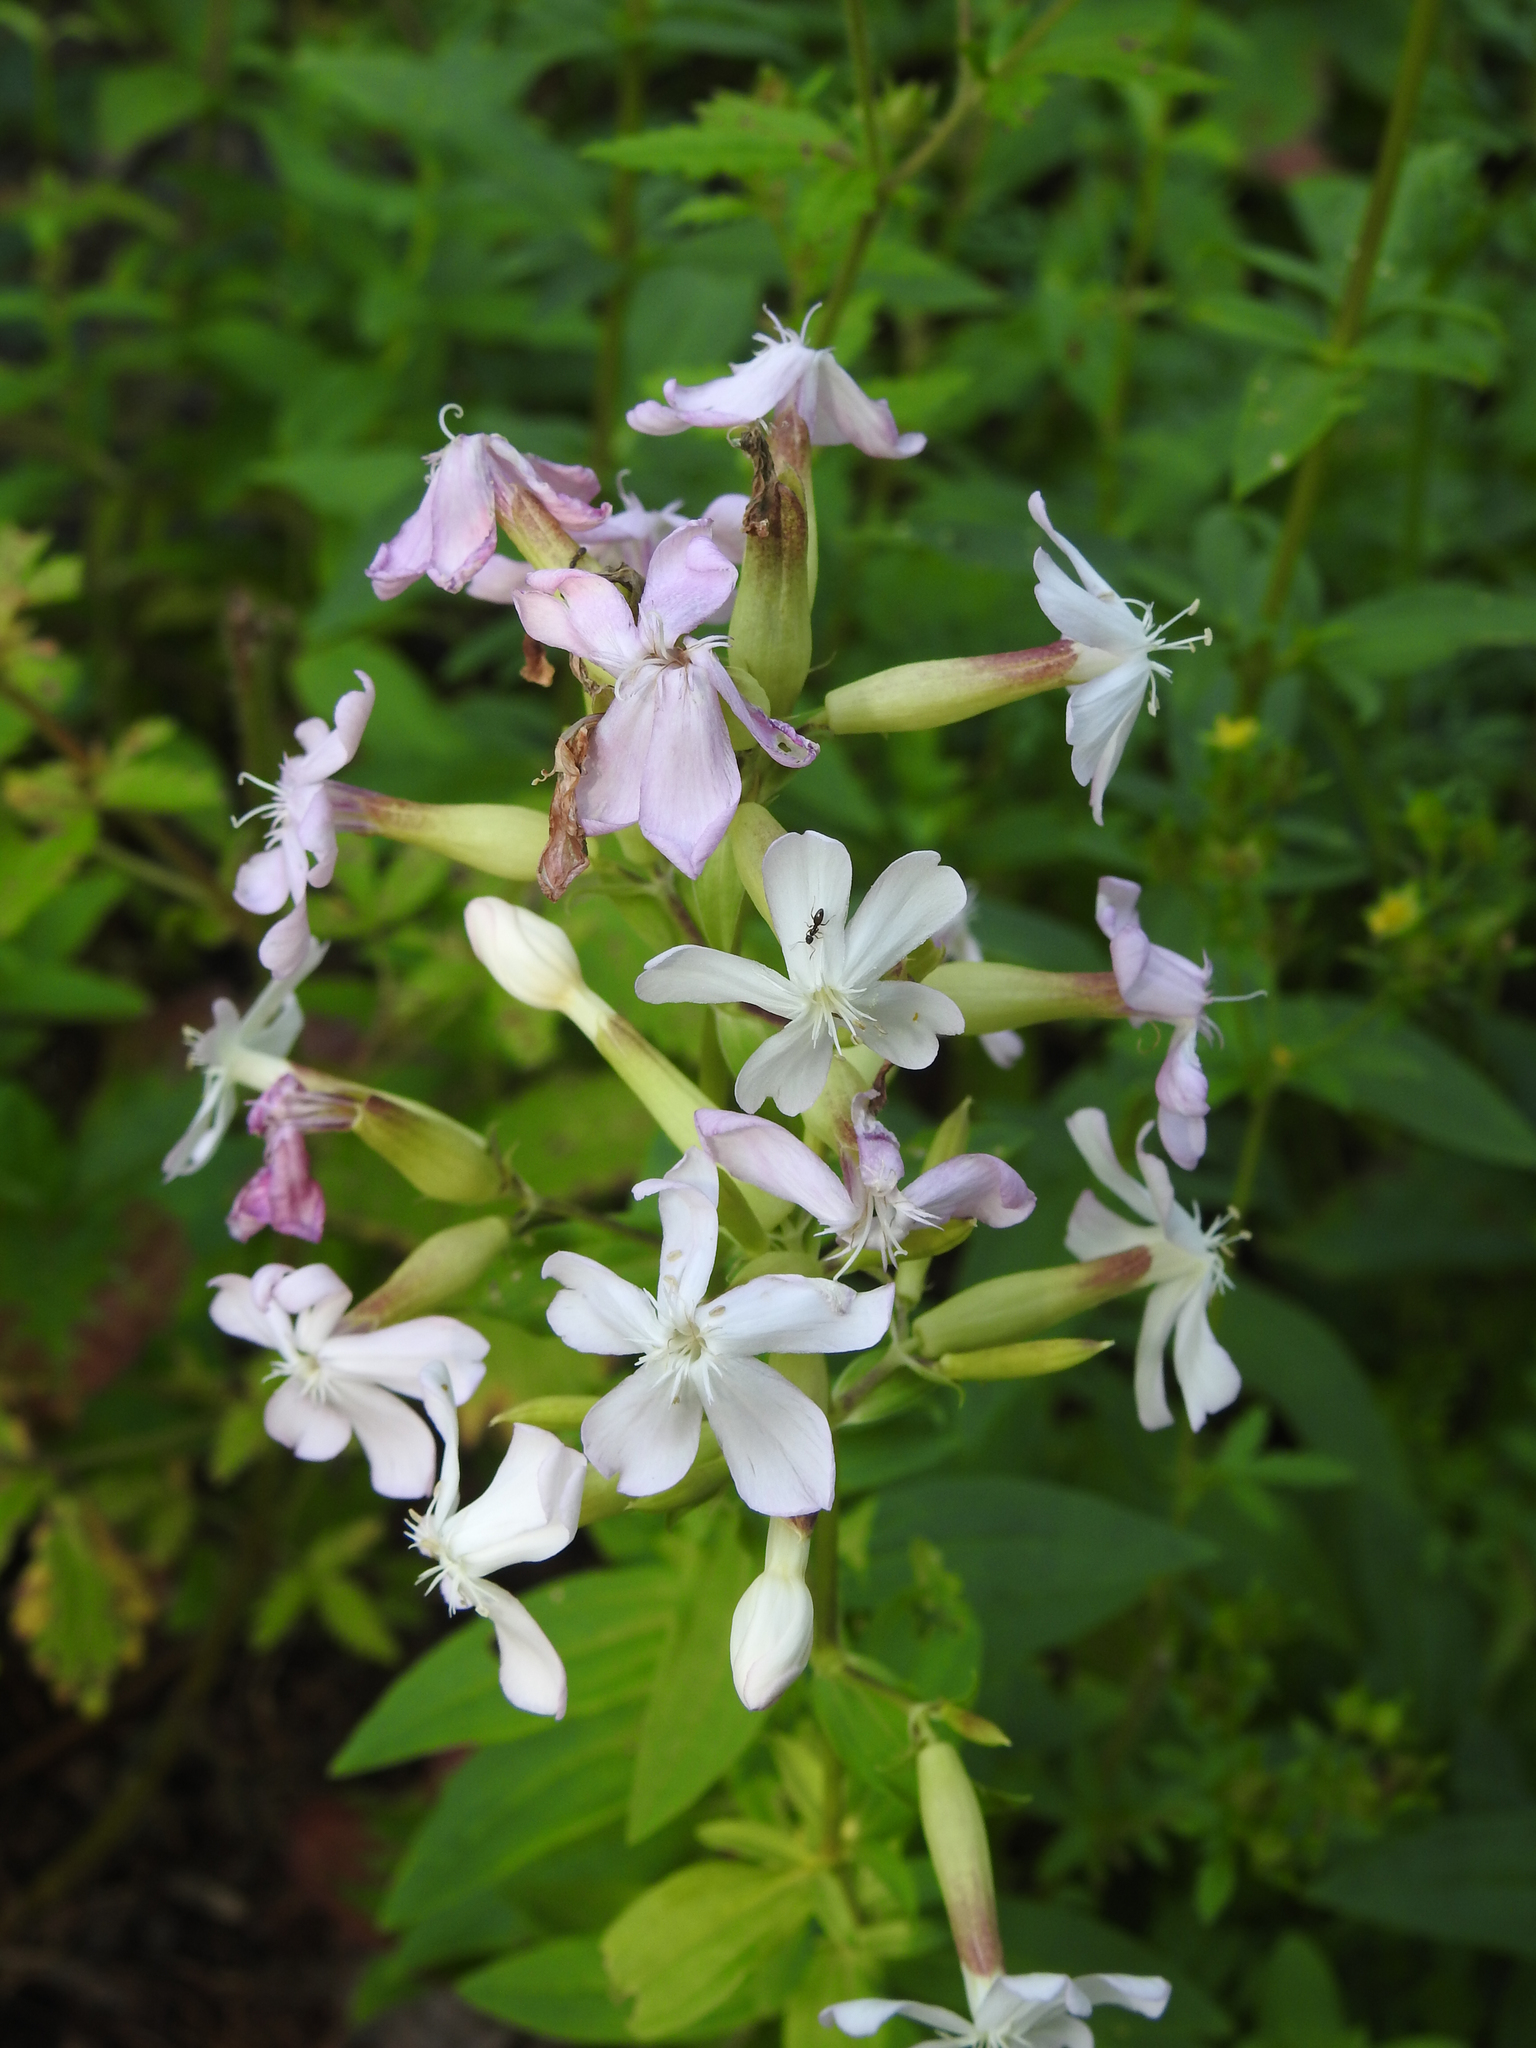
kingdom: Plantae
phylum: Tracheophyta
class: Magnoliopsida
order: Caryophyllales
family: Caryophyllaceae
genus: Saponaria
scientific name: Saponaria officinalis
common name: Soapwort
